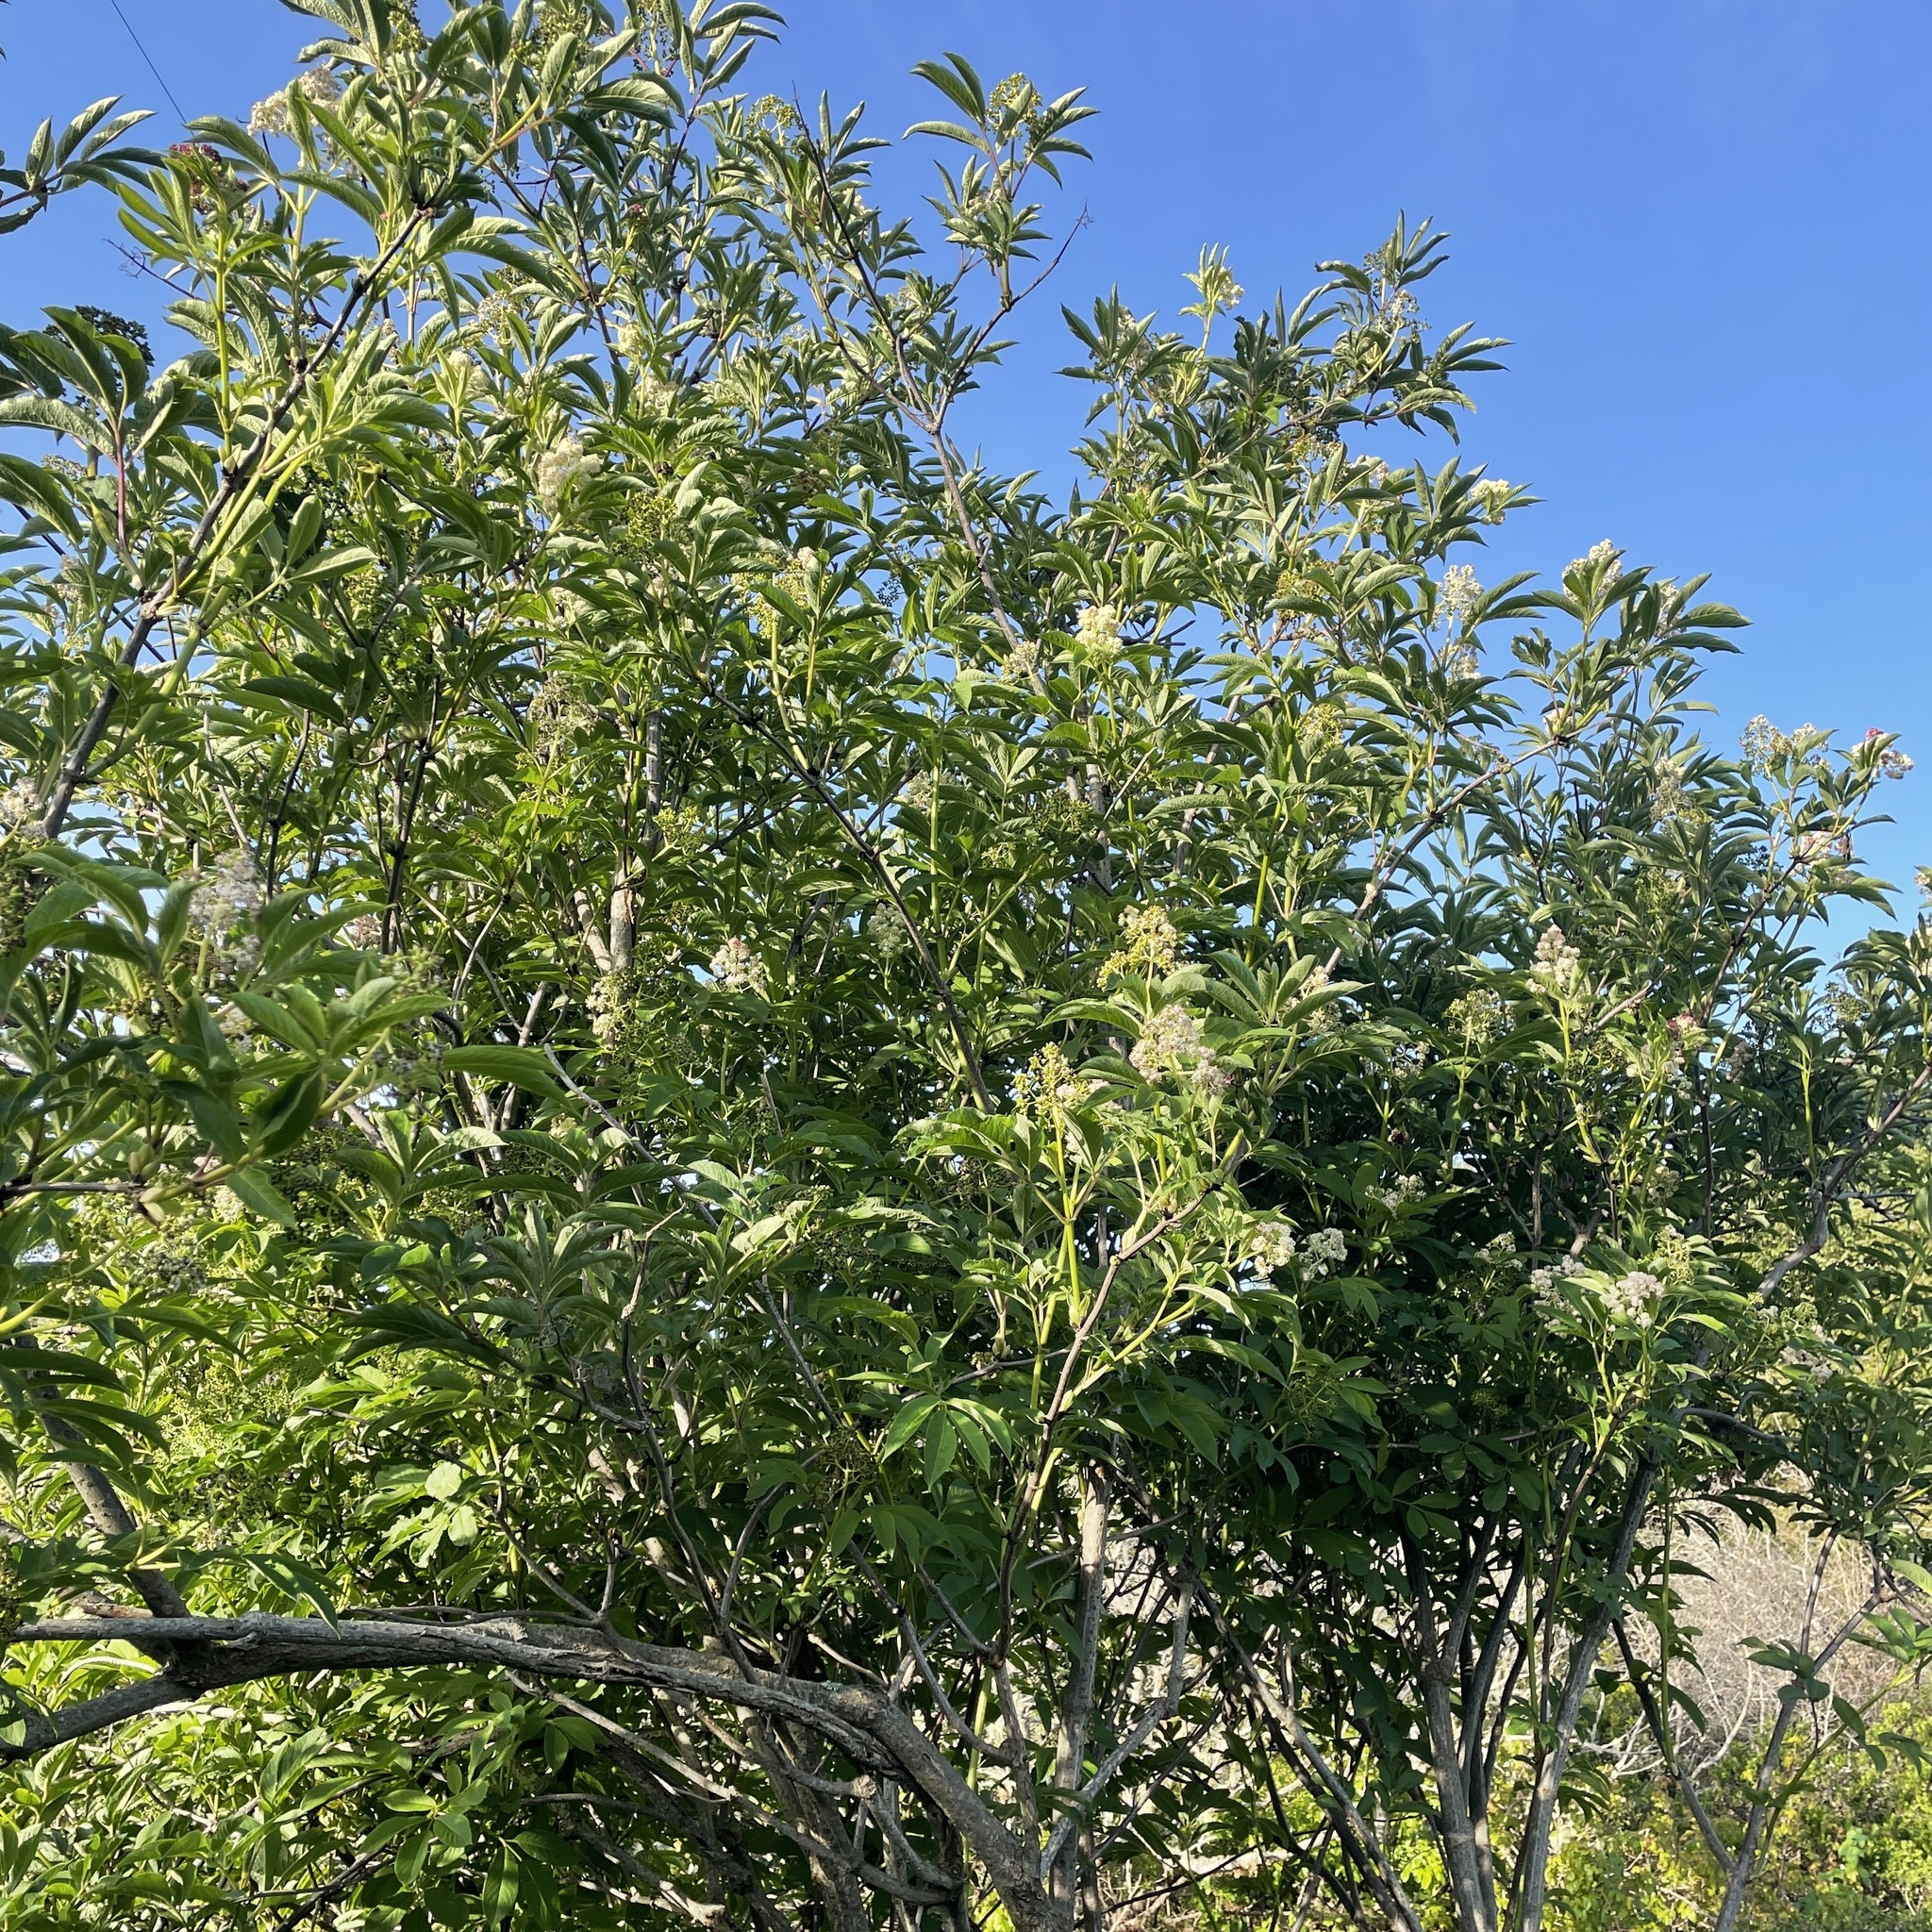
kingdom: Plantae
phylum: Tracheophyta
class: Magnoliopsida
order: Dipsacales
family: Viburnaceae
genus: Sambucus
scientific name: Sambucus racemosa
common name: Red-berried elder
